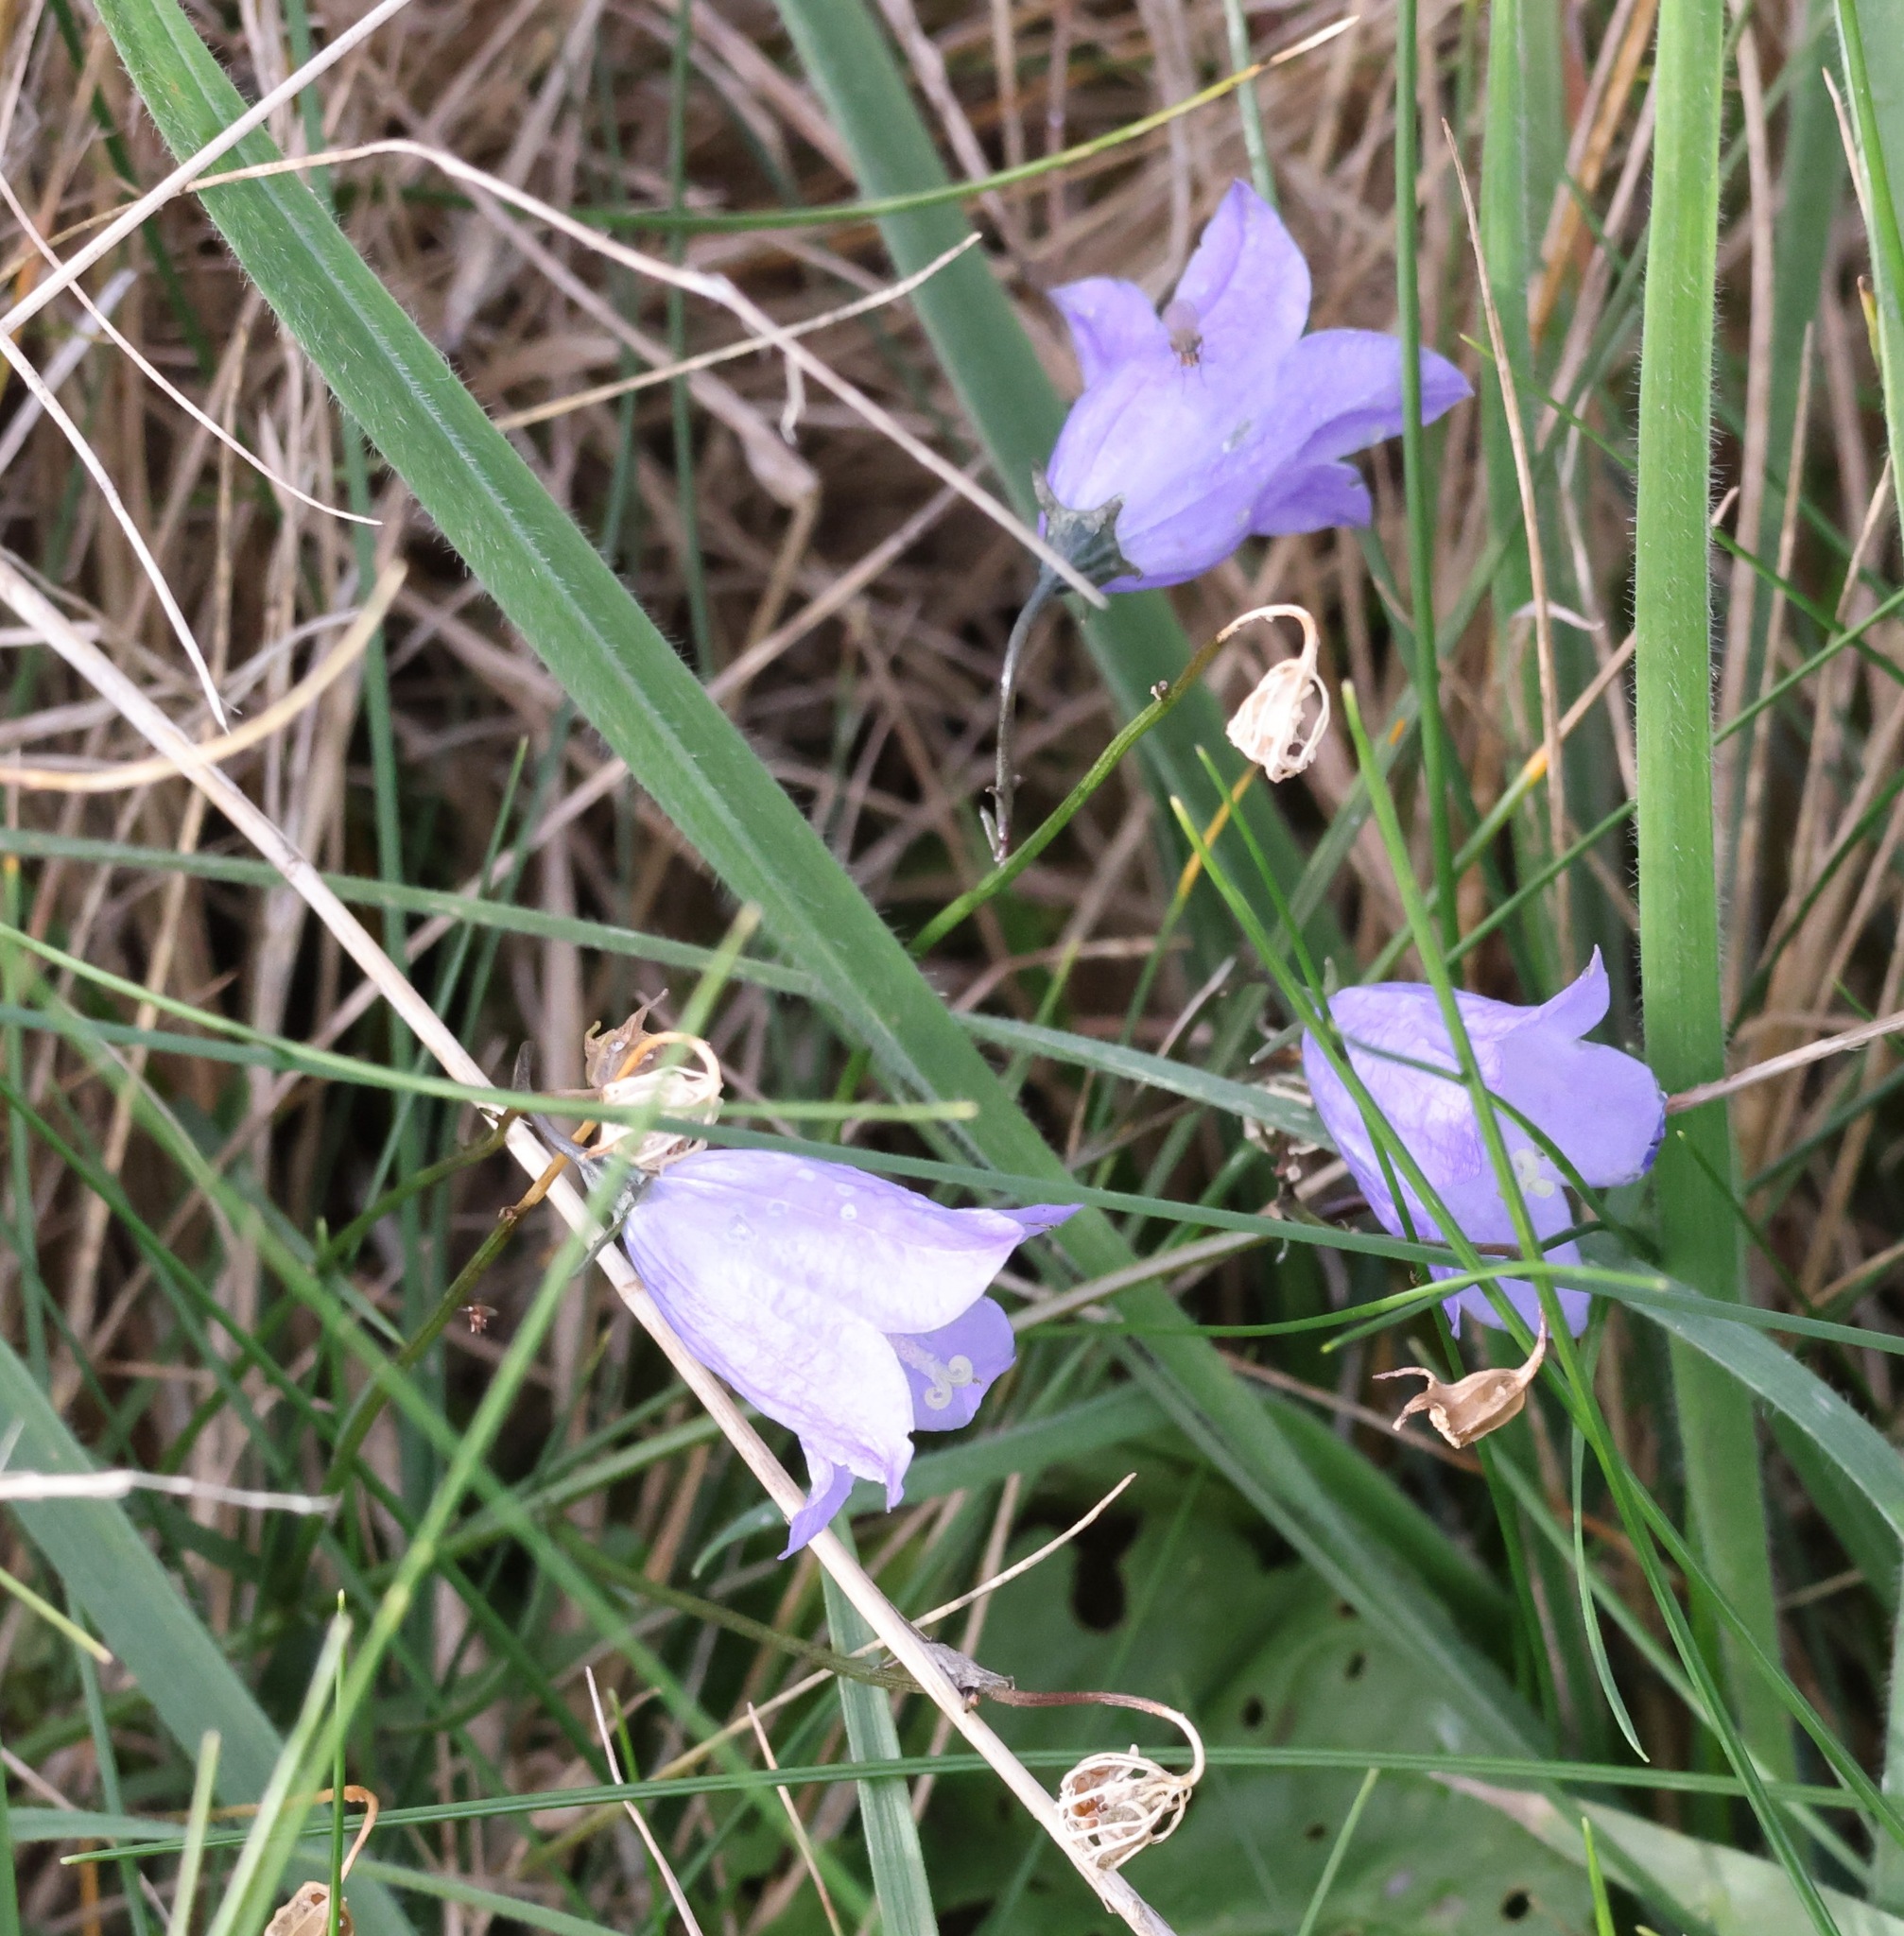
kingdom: Plantae
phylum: Tracheophyta
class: Magnoliopsida
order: Asterales
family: Campanulaceae
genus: Campanula
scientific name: Campanula rotundifolia
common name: Harebell
